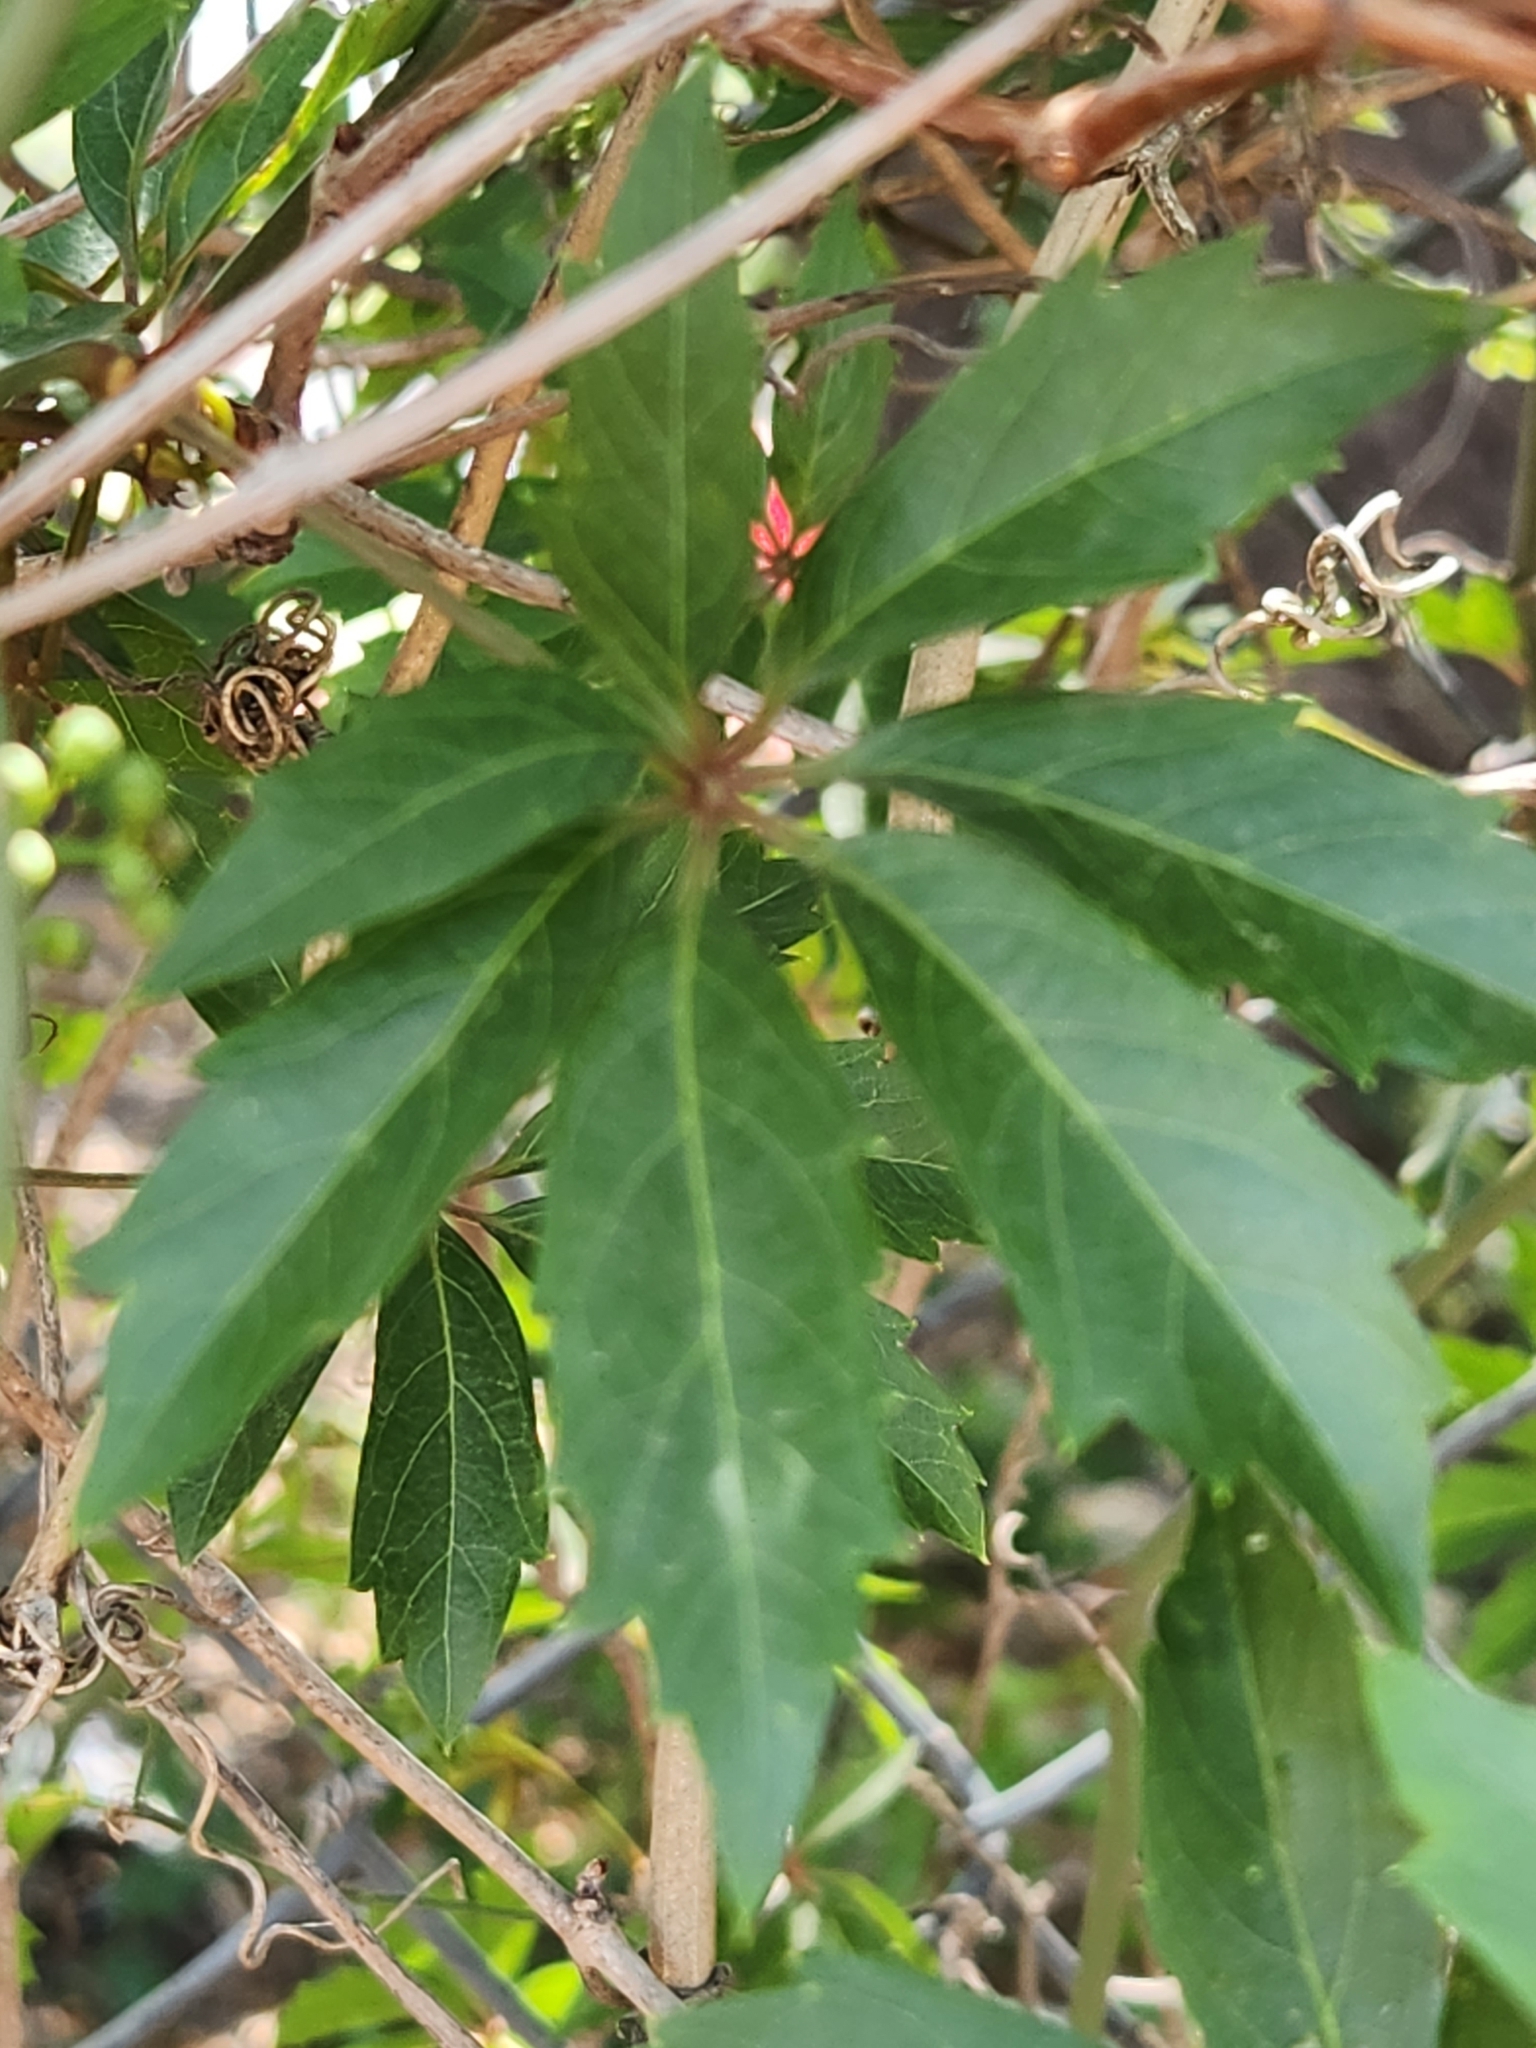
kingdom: Plantae
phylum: Tracheophyta
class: Magnoliopsida
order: Vitales
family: Vitaceae
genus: Parthenocissus
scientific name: Parthenocissus heptaphylla
